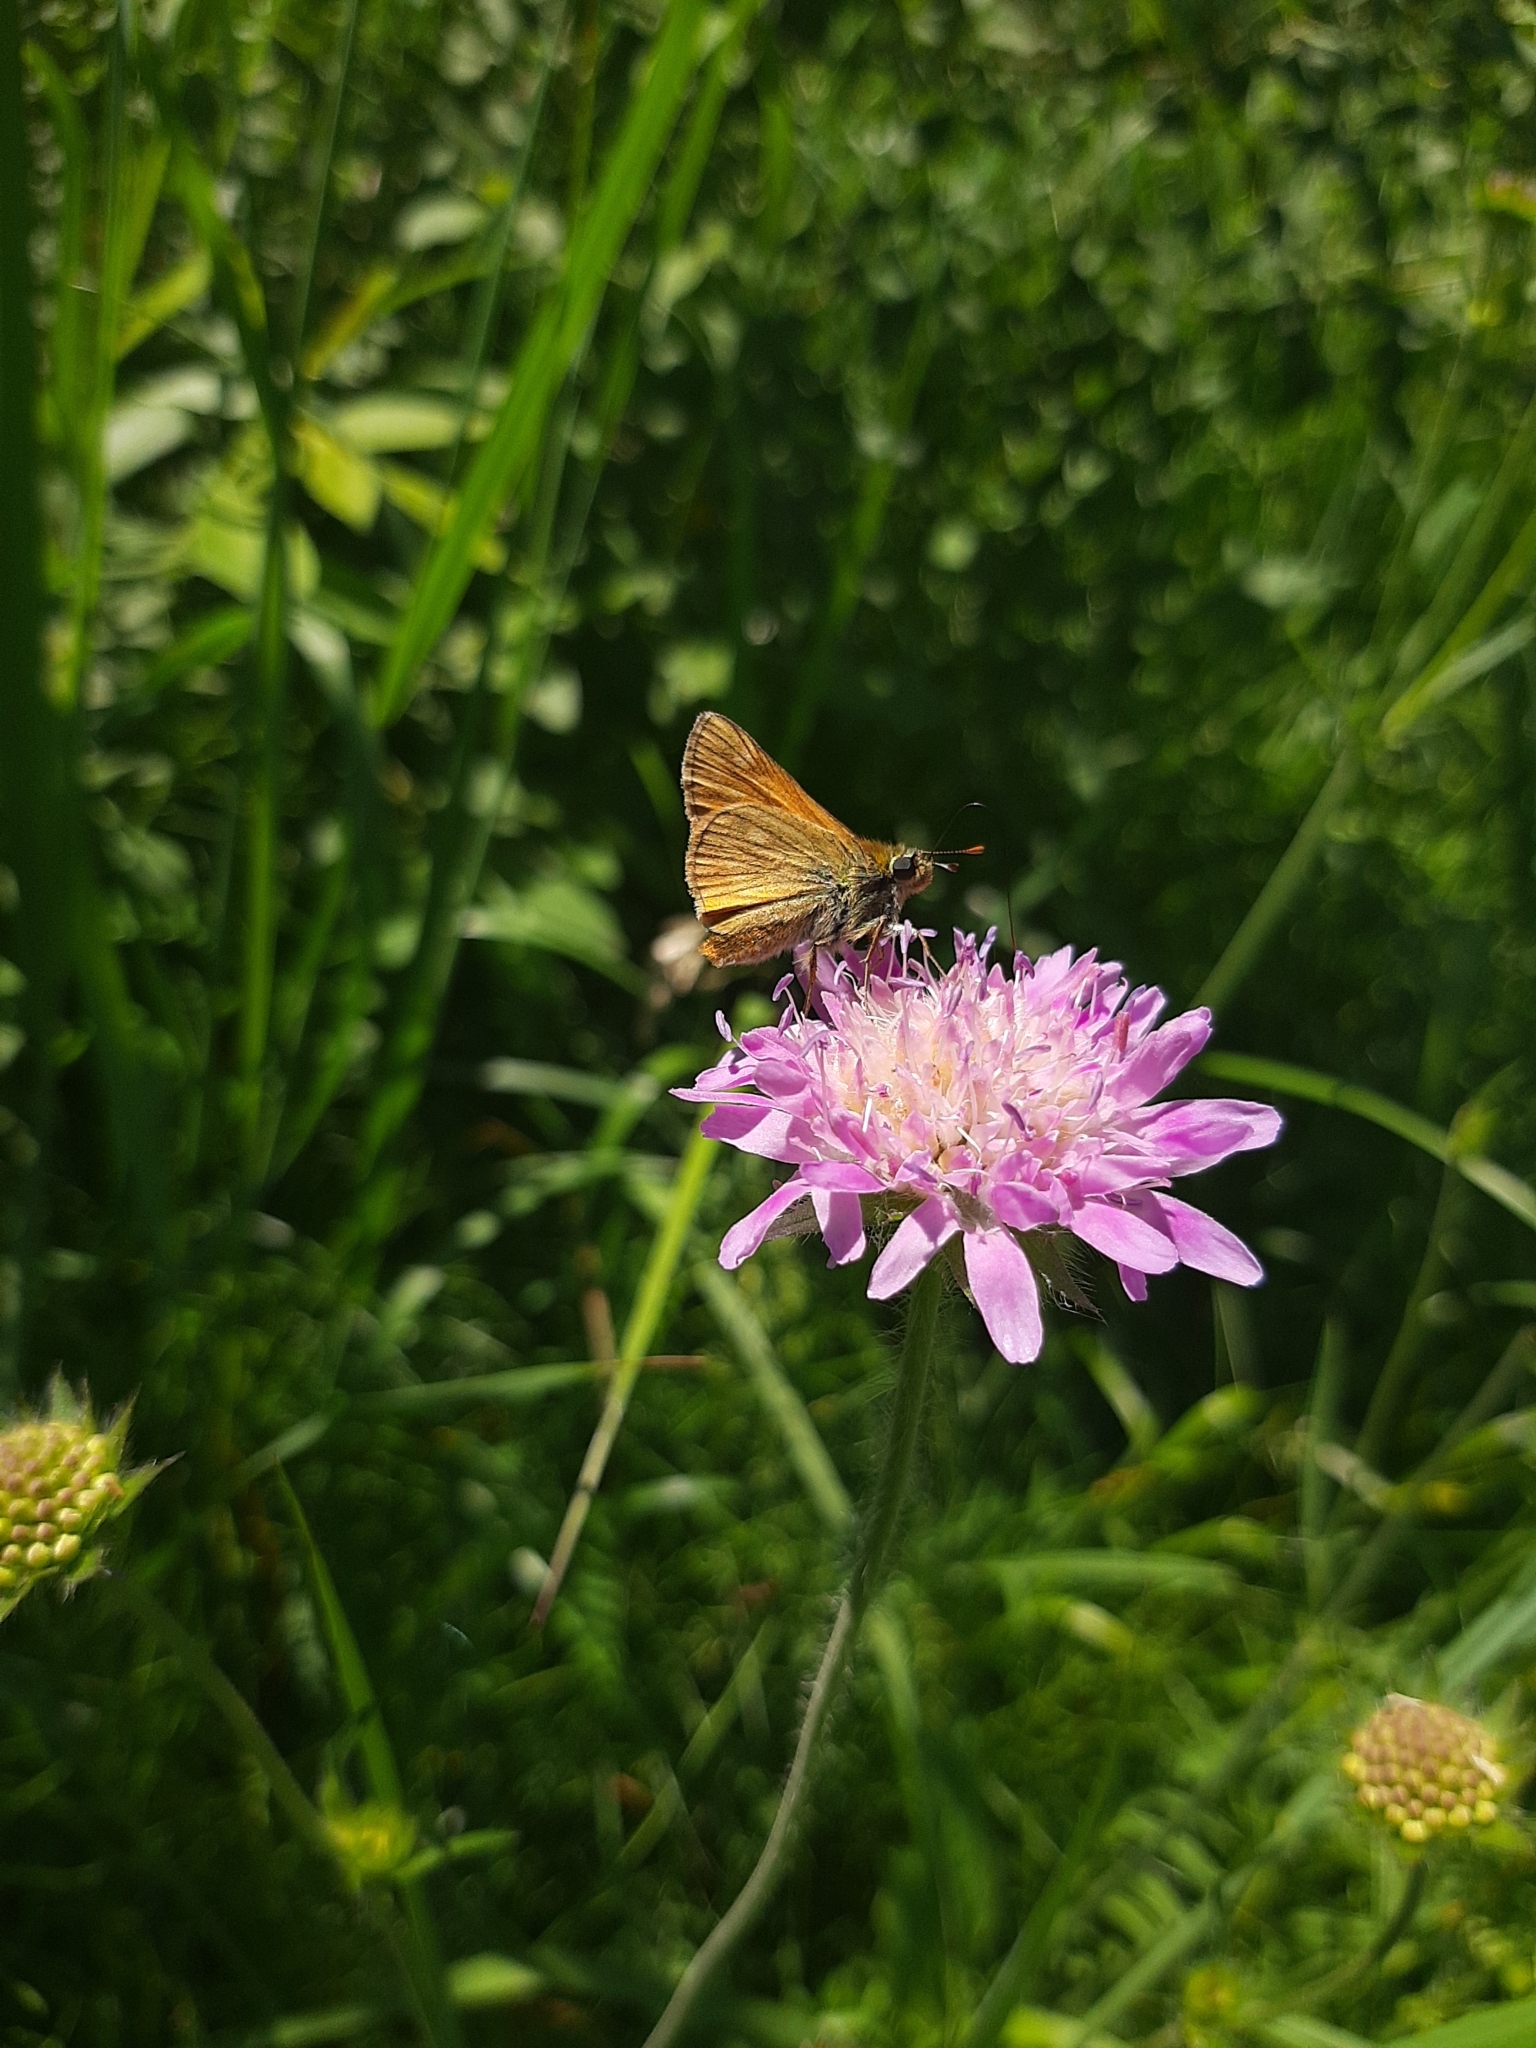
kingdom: Animalia
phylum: Arthropoda
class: Insecta
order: Lepidoptera
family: Hesperiidae
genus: Ochlodes
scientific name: Ochlodes venata
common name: Large skipper
